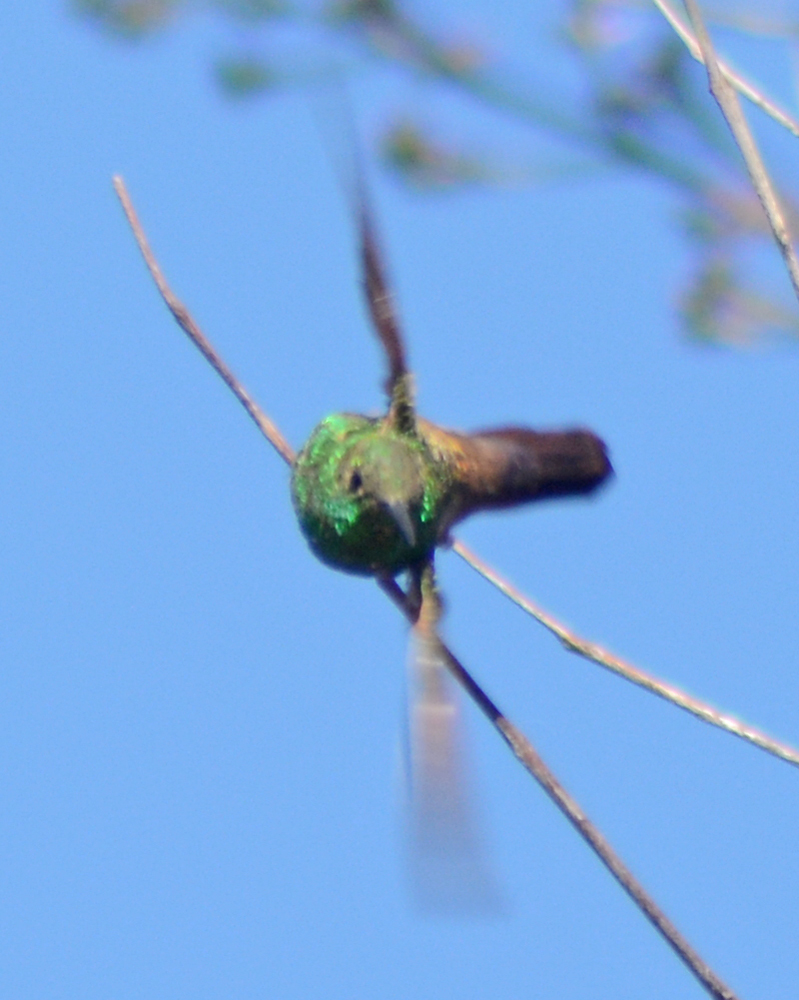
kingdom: Animalia
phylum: Chordata
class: Aves
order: Apodiformes
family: Trochilidae
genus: Saucerottia
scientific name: Saucerottia beryllina
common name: Berylline hummingbird
